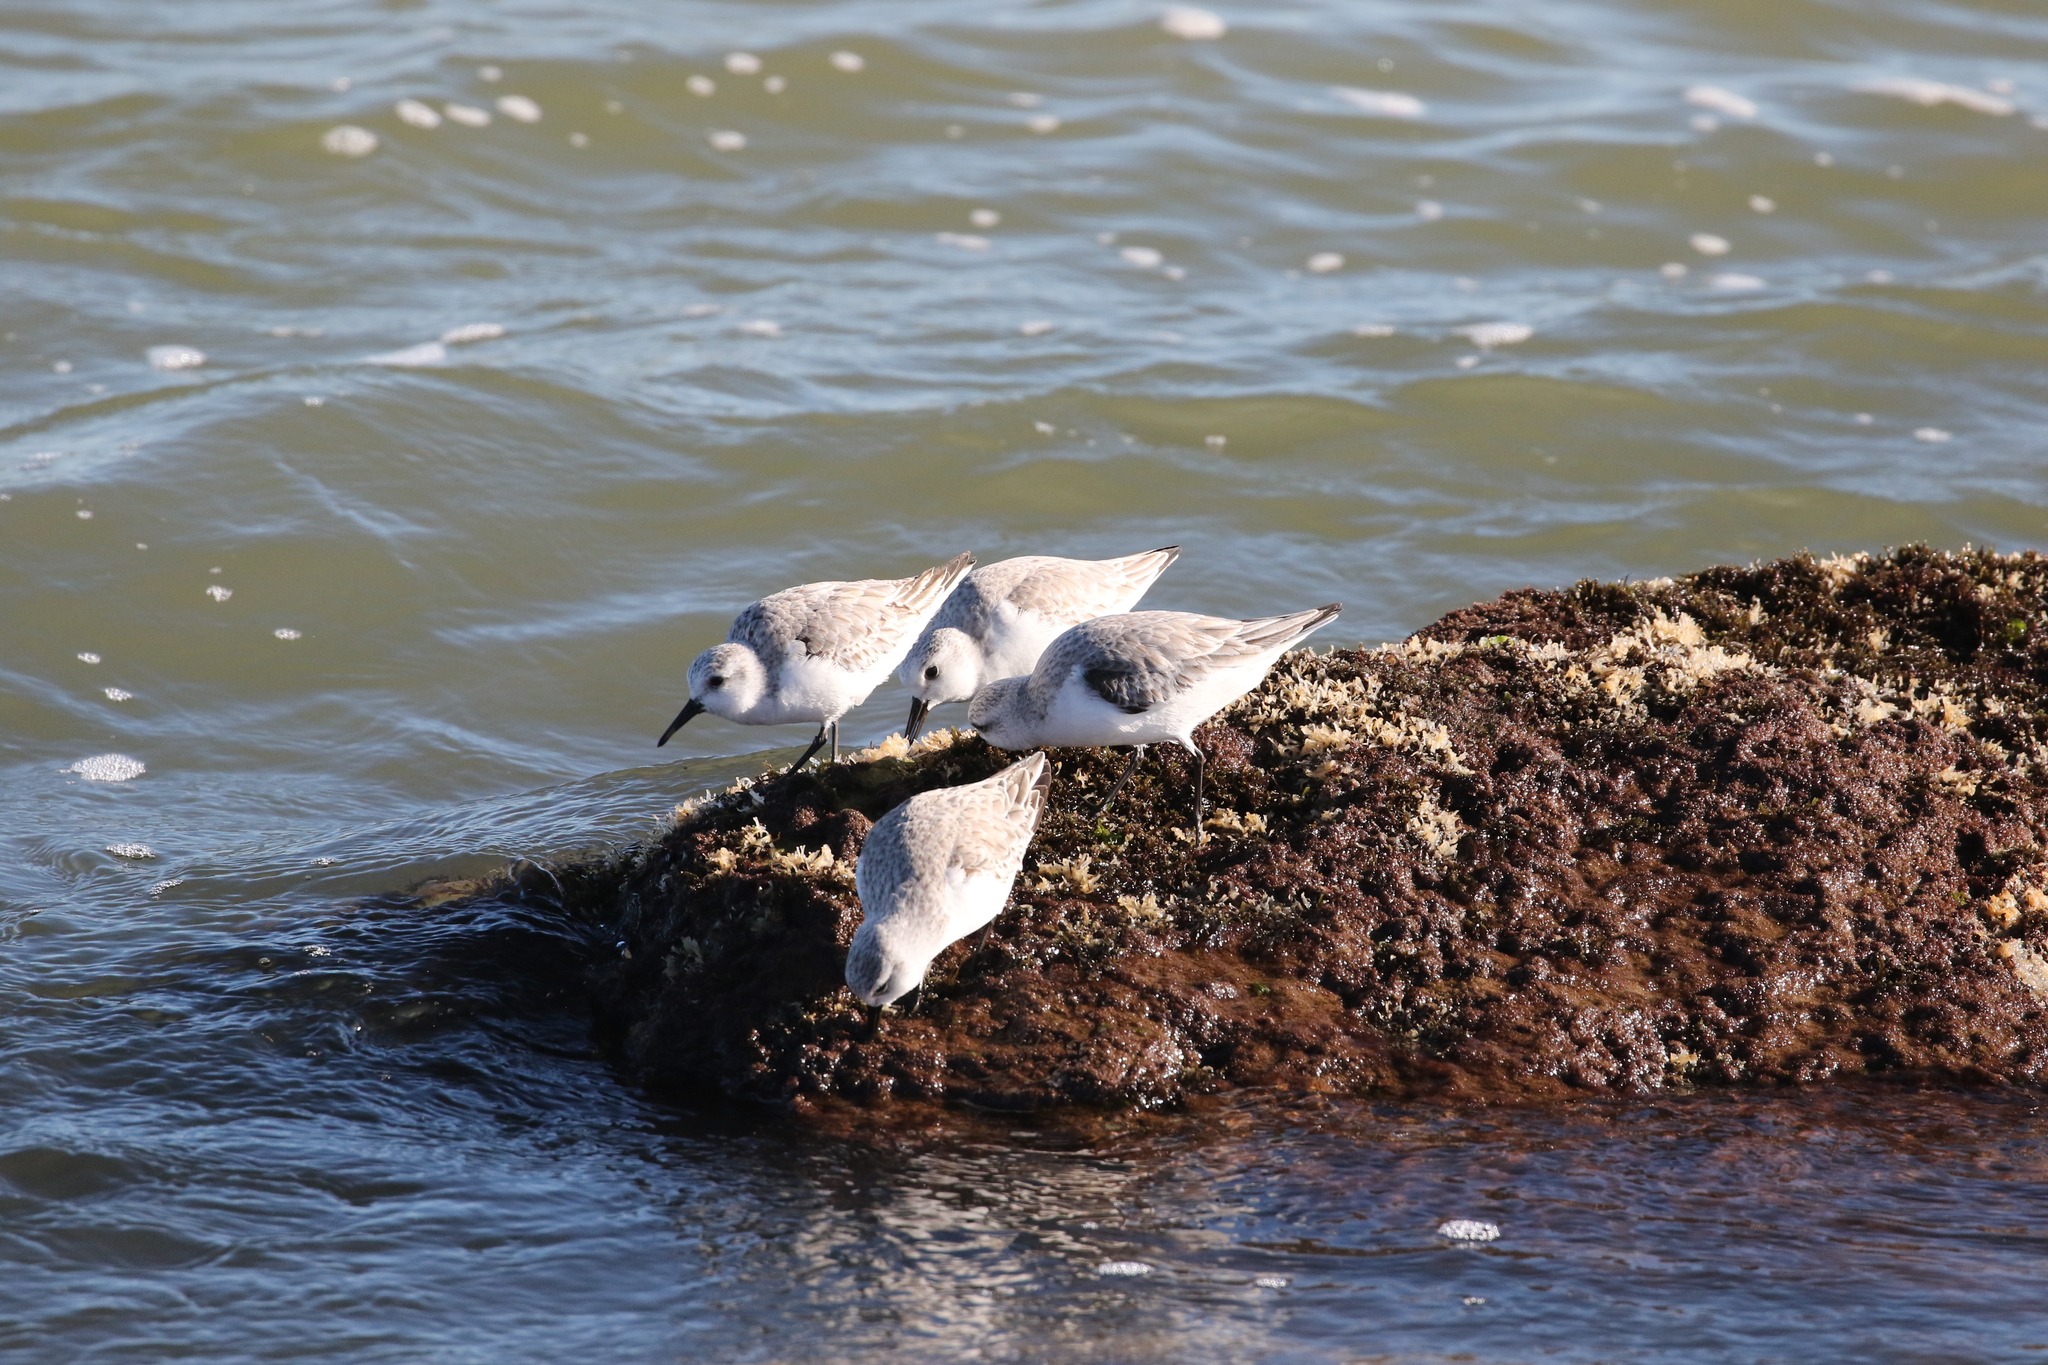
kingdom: Animalia
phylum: Chordata
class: Aves
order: Charadriiformes
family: Scolopacidae
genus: Calidris
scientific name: Calidris alba
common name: Sanderling
